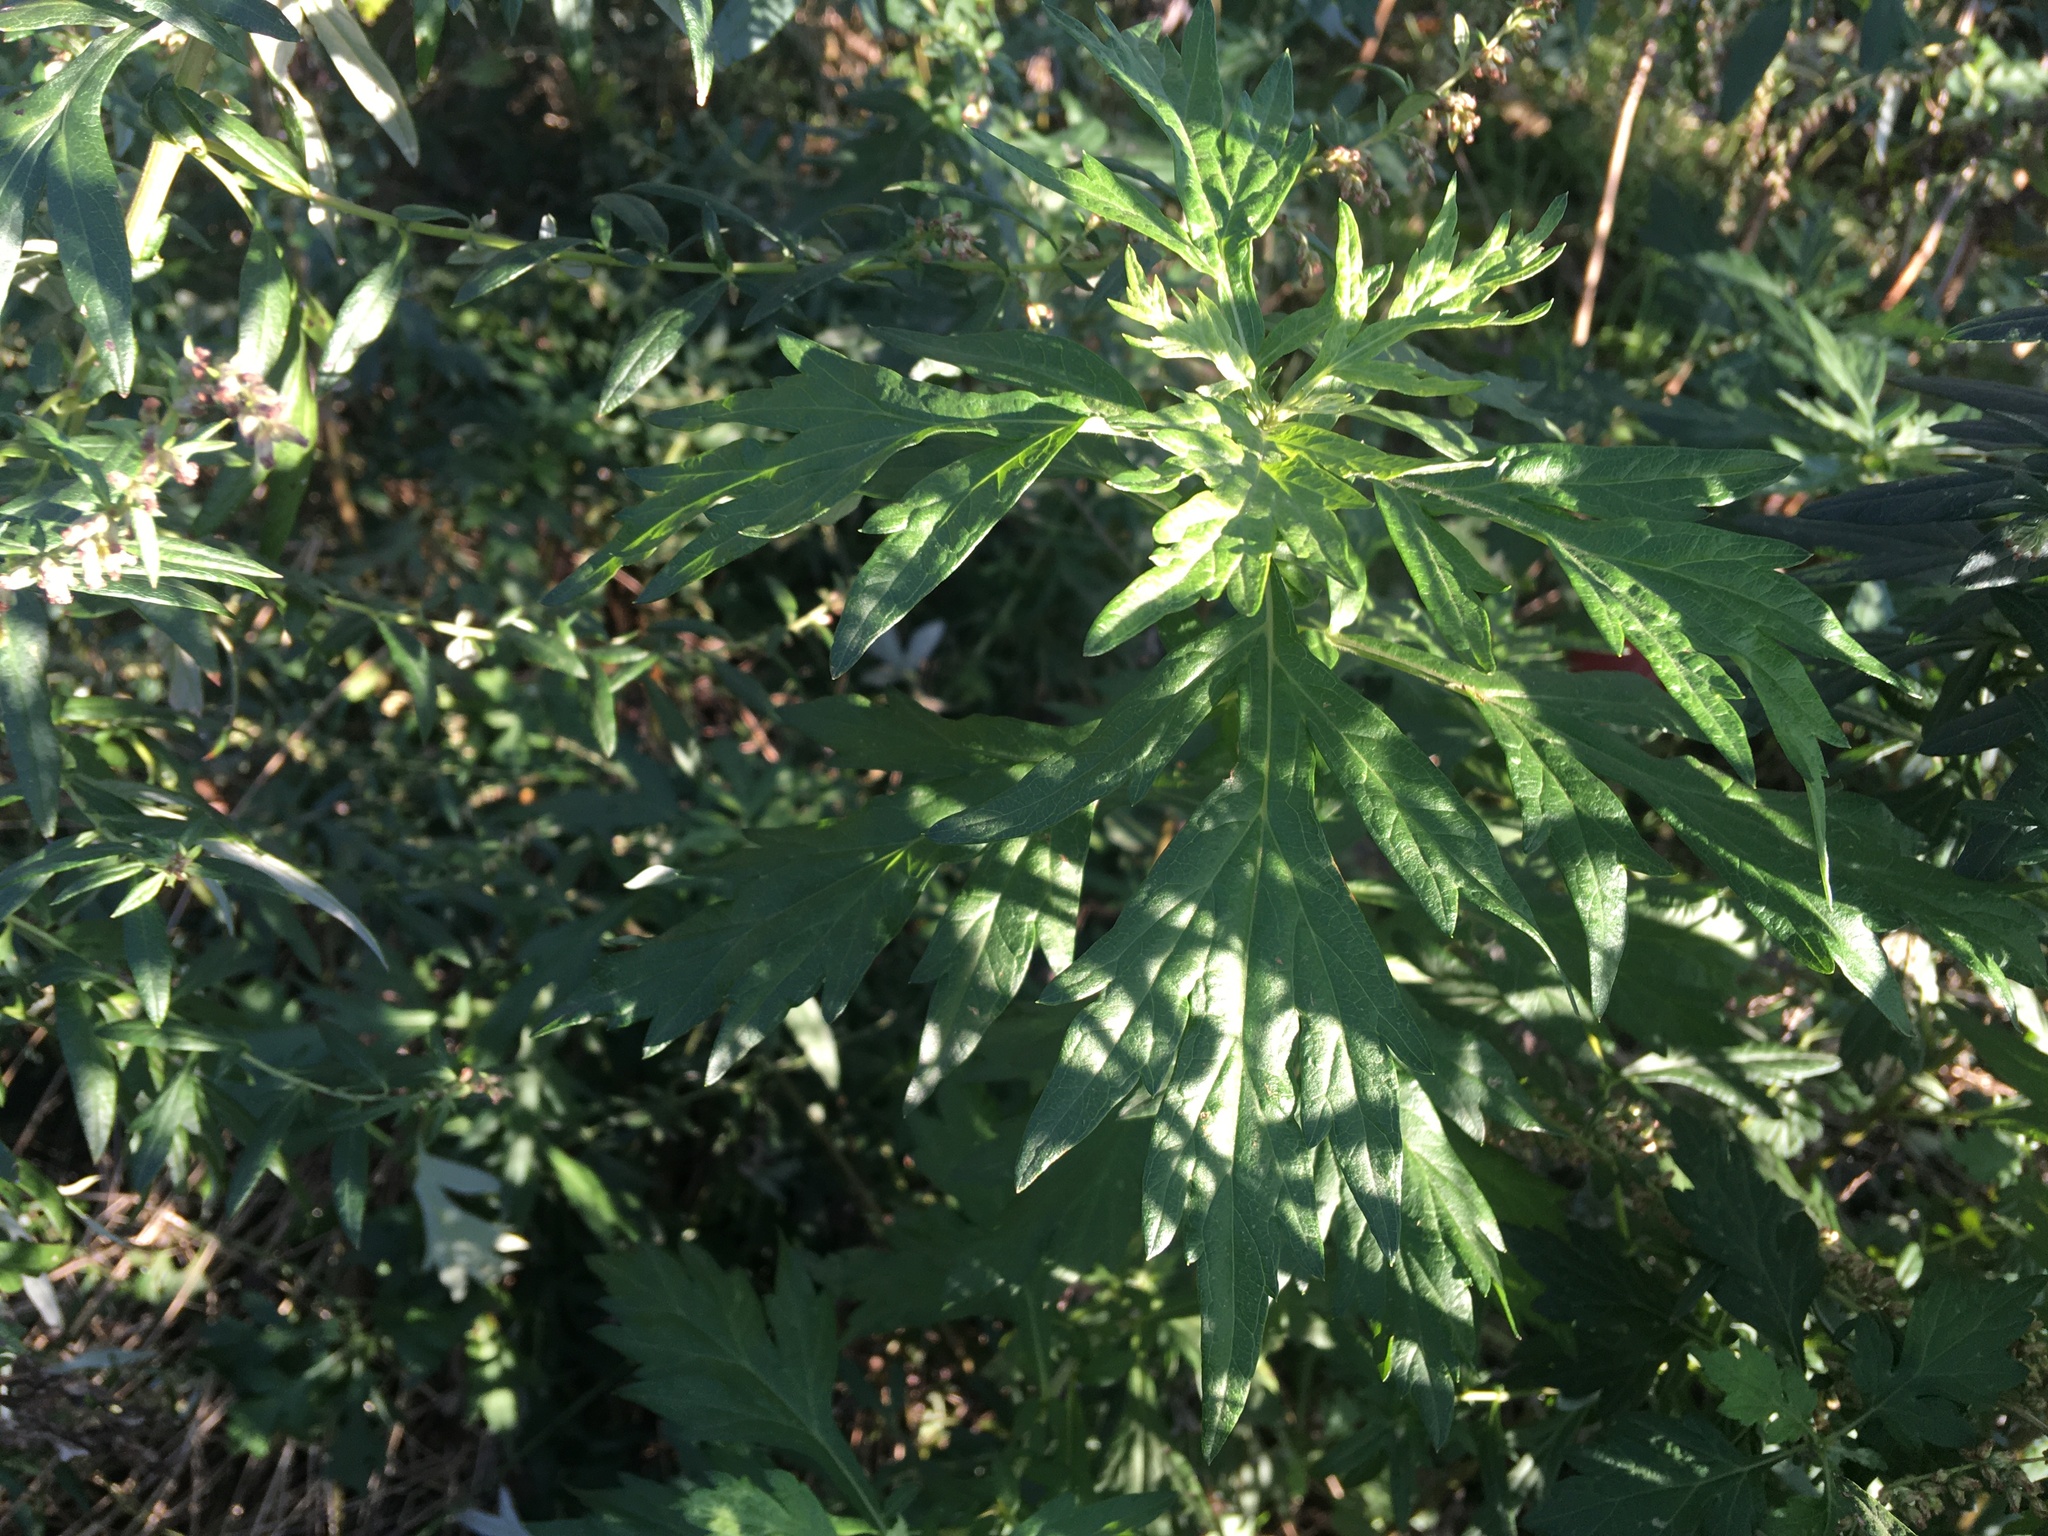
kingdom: Plantae
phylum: Tracheophyta
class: Magnoliopsida
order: Asterales
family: Asteraceae
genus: Artemisia
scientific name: Artemisia vulgaris
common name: Mugwort
